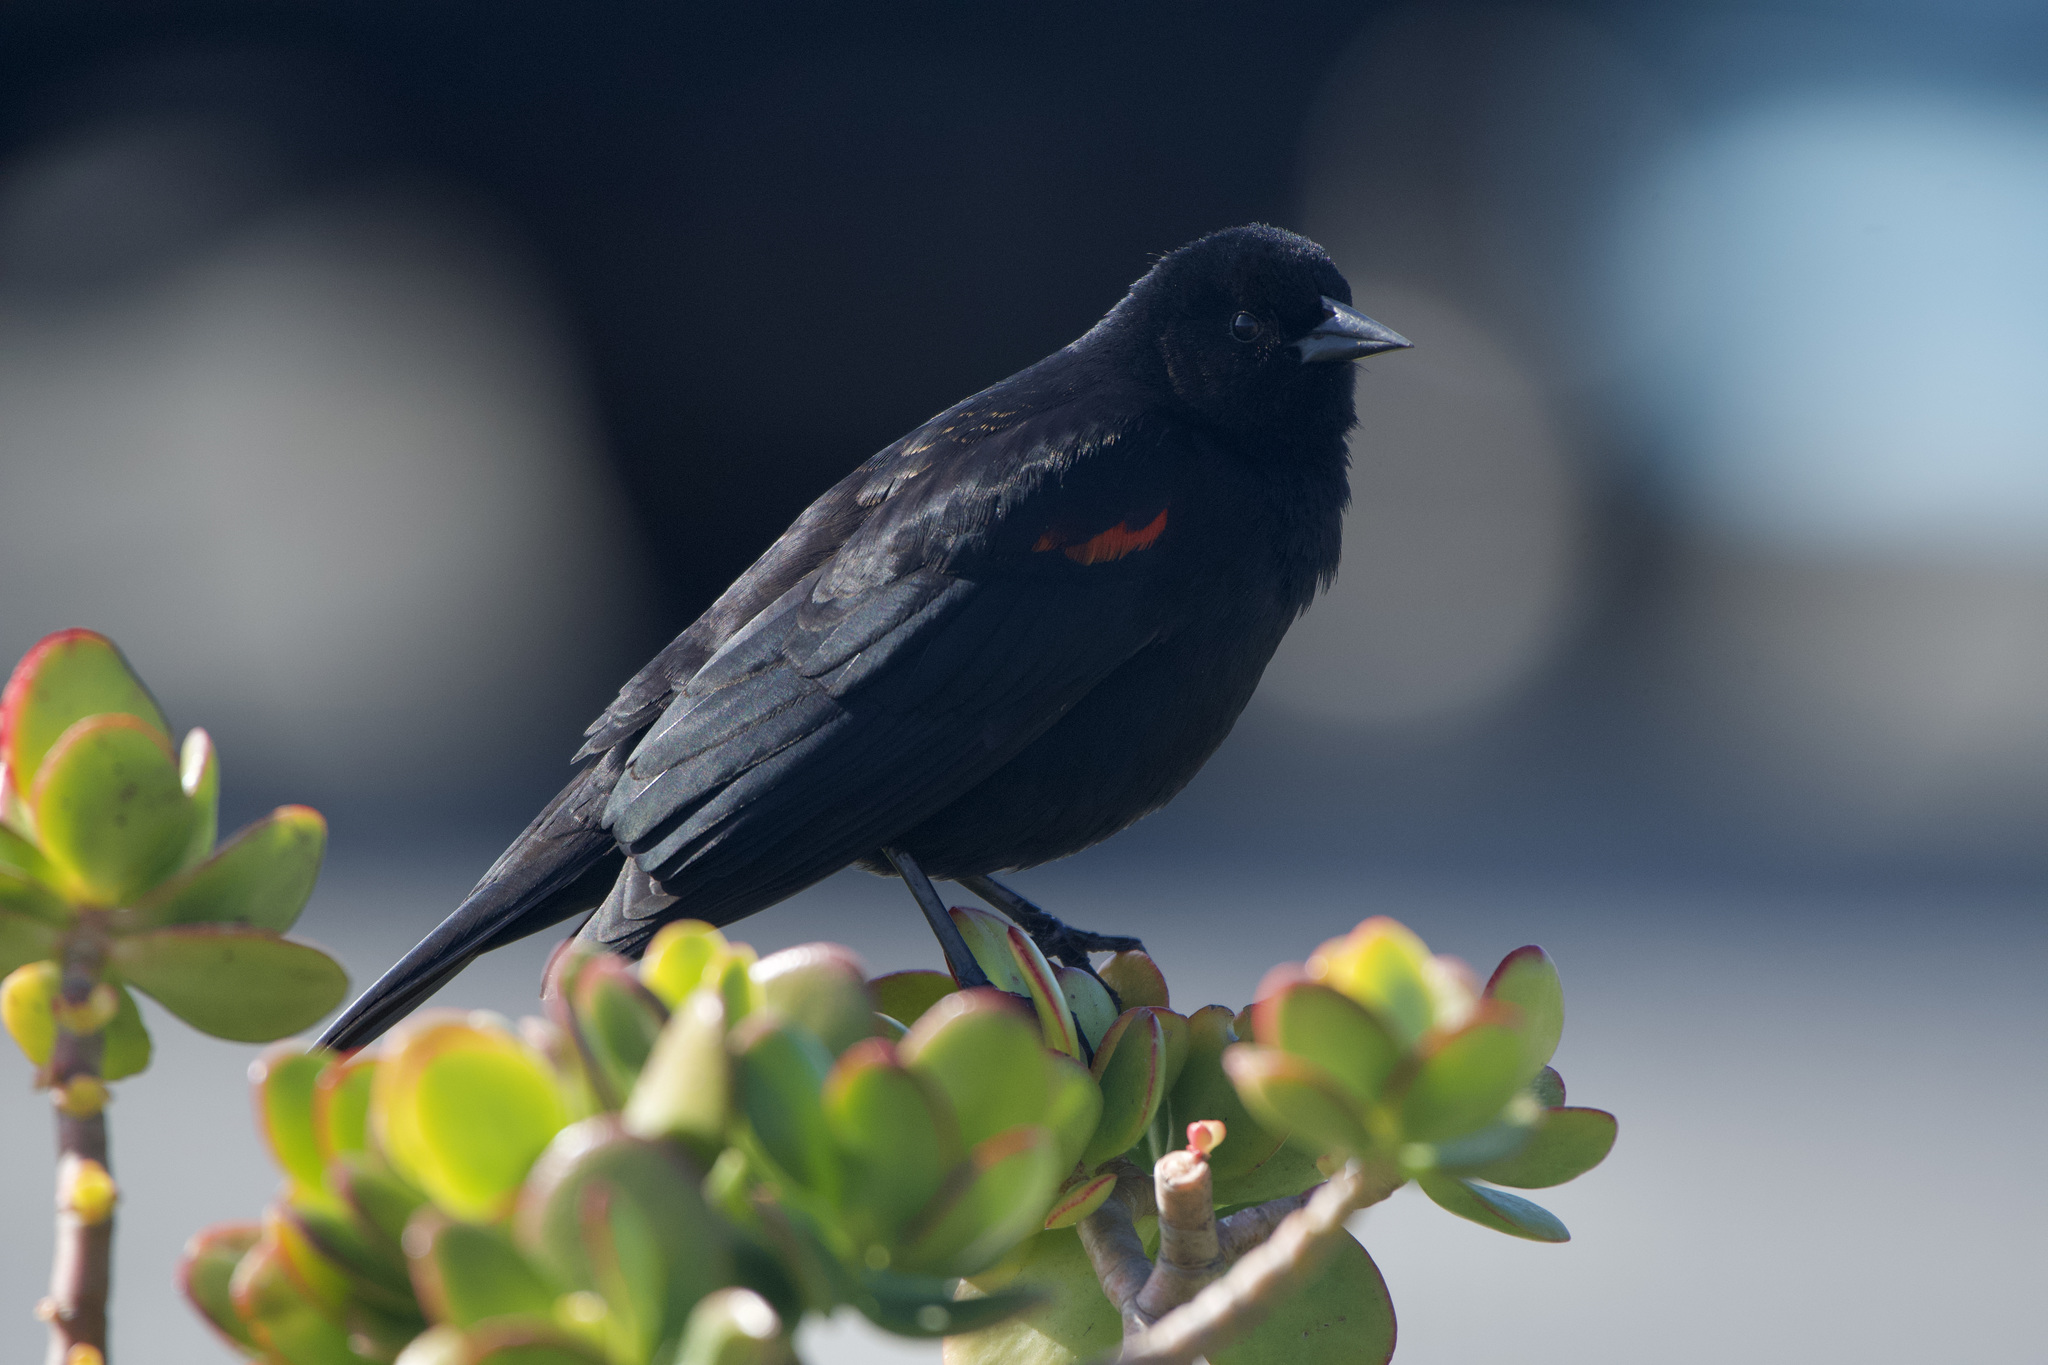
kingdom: Animalia
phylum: Chordata
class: Aves
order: Passeriformes
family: Icteridae
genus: Agelaius
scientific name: Agelaius phoeniceus
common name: Red-winged blackbird
